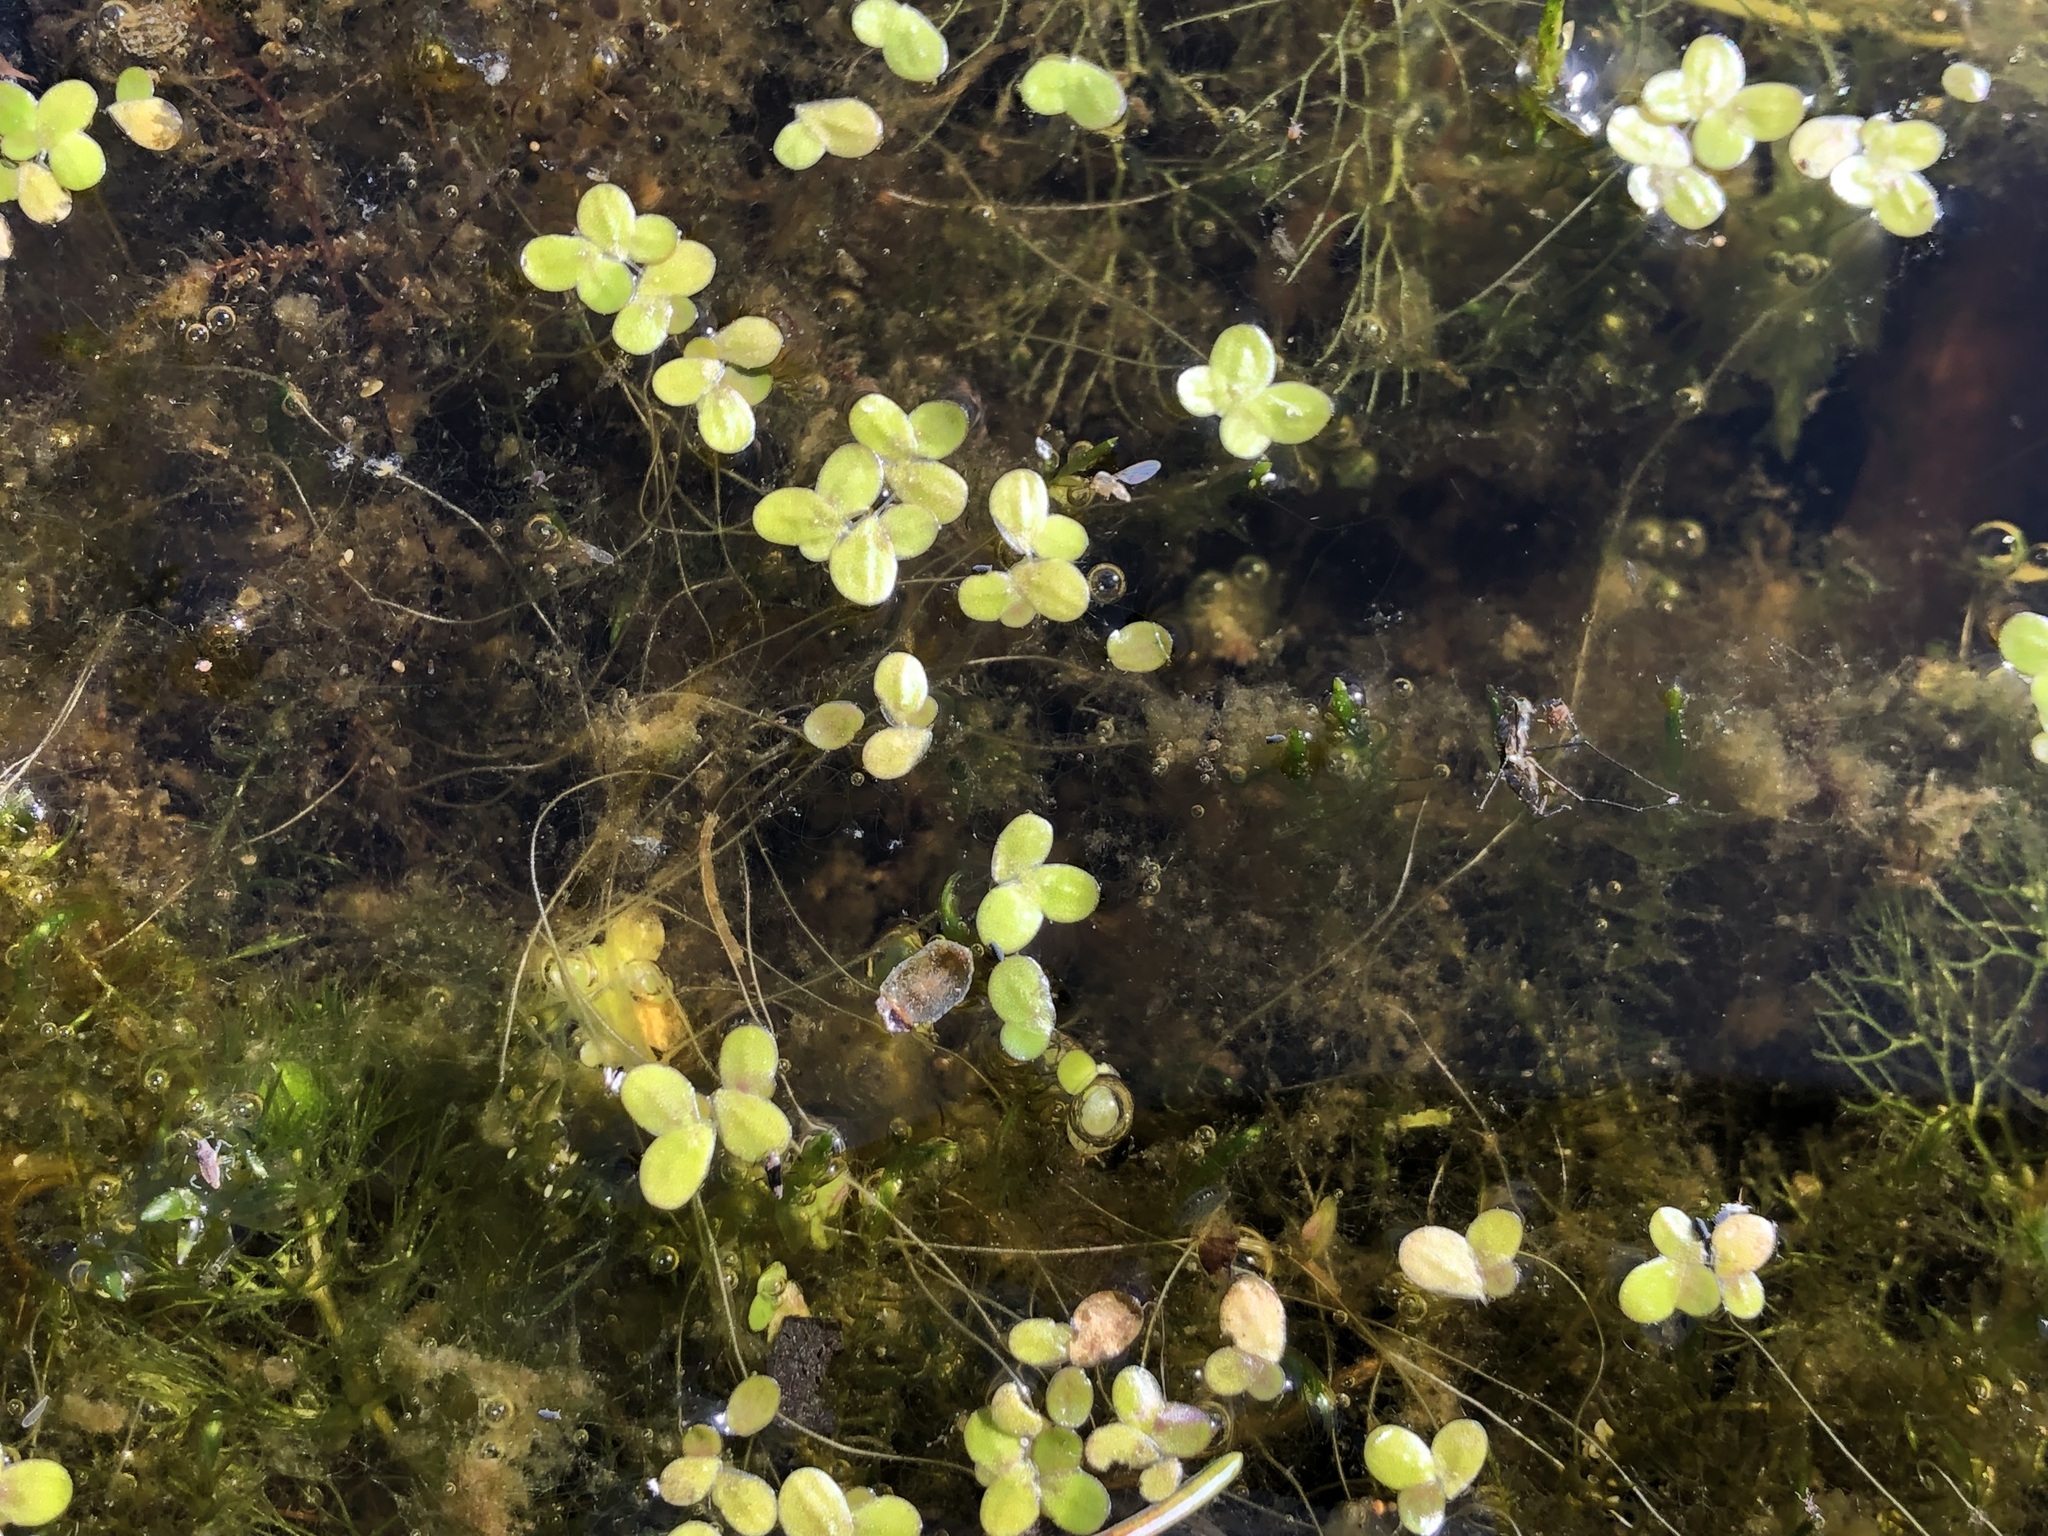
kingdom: Plantae
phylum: Tracheophyta
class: Liliopsida
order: Alismatales
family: Araceae
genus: Lemna
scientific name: Lemna minor
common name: Common duckweed
